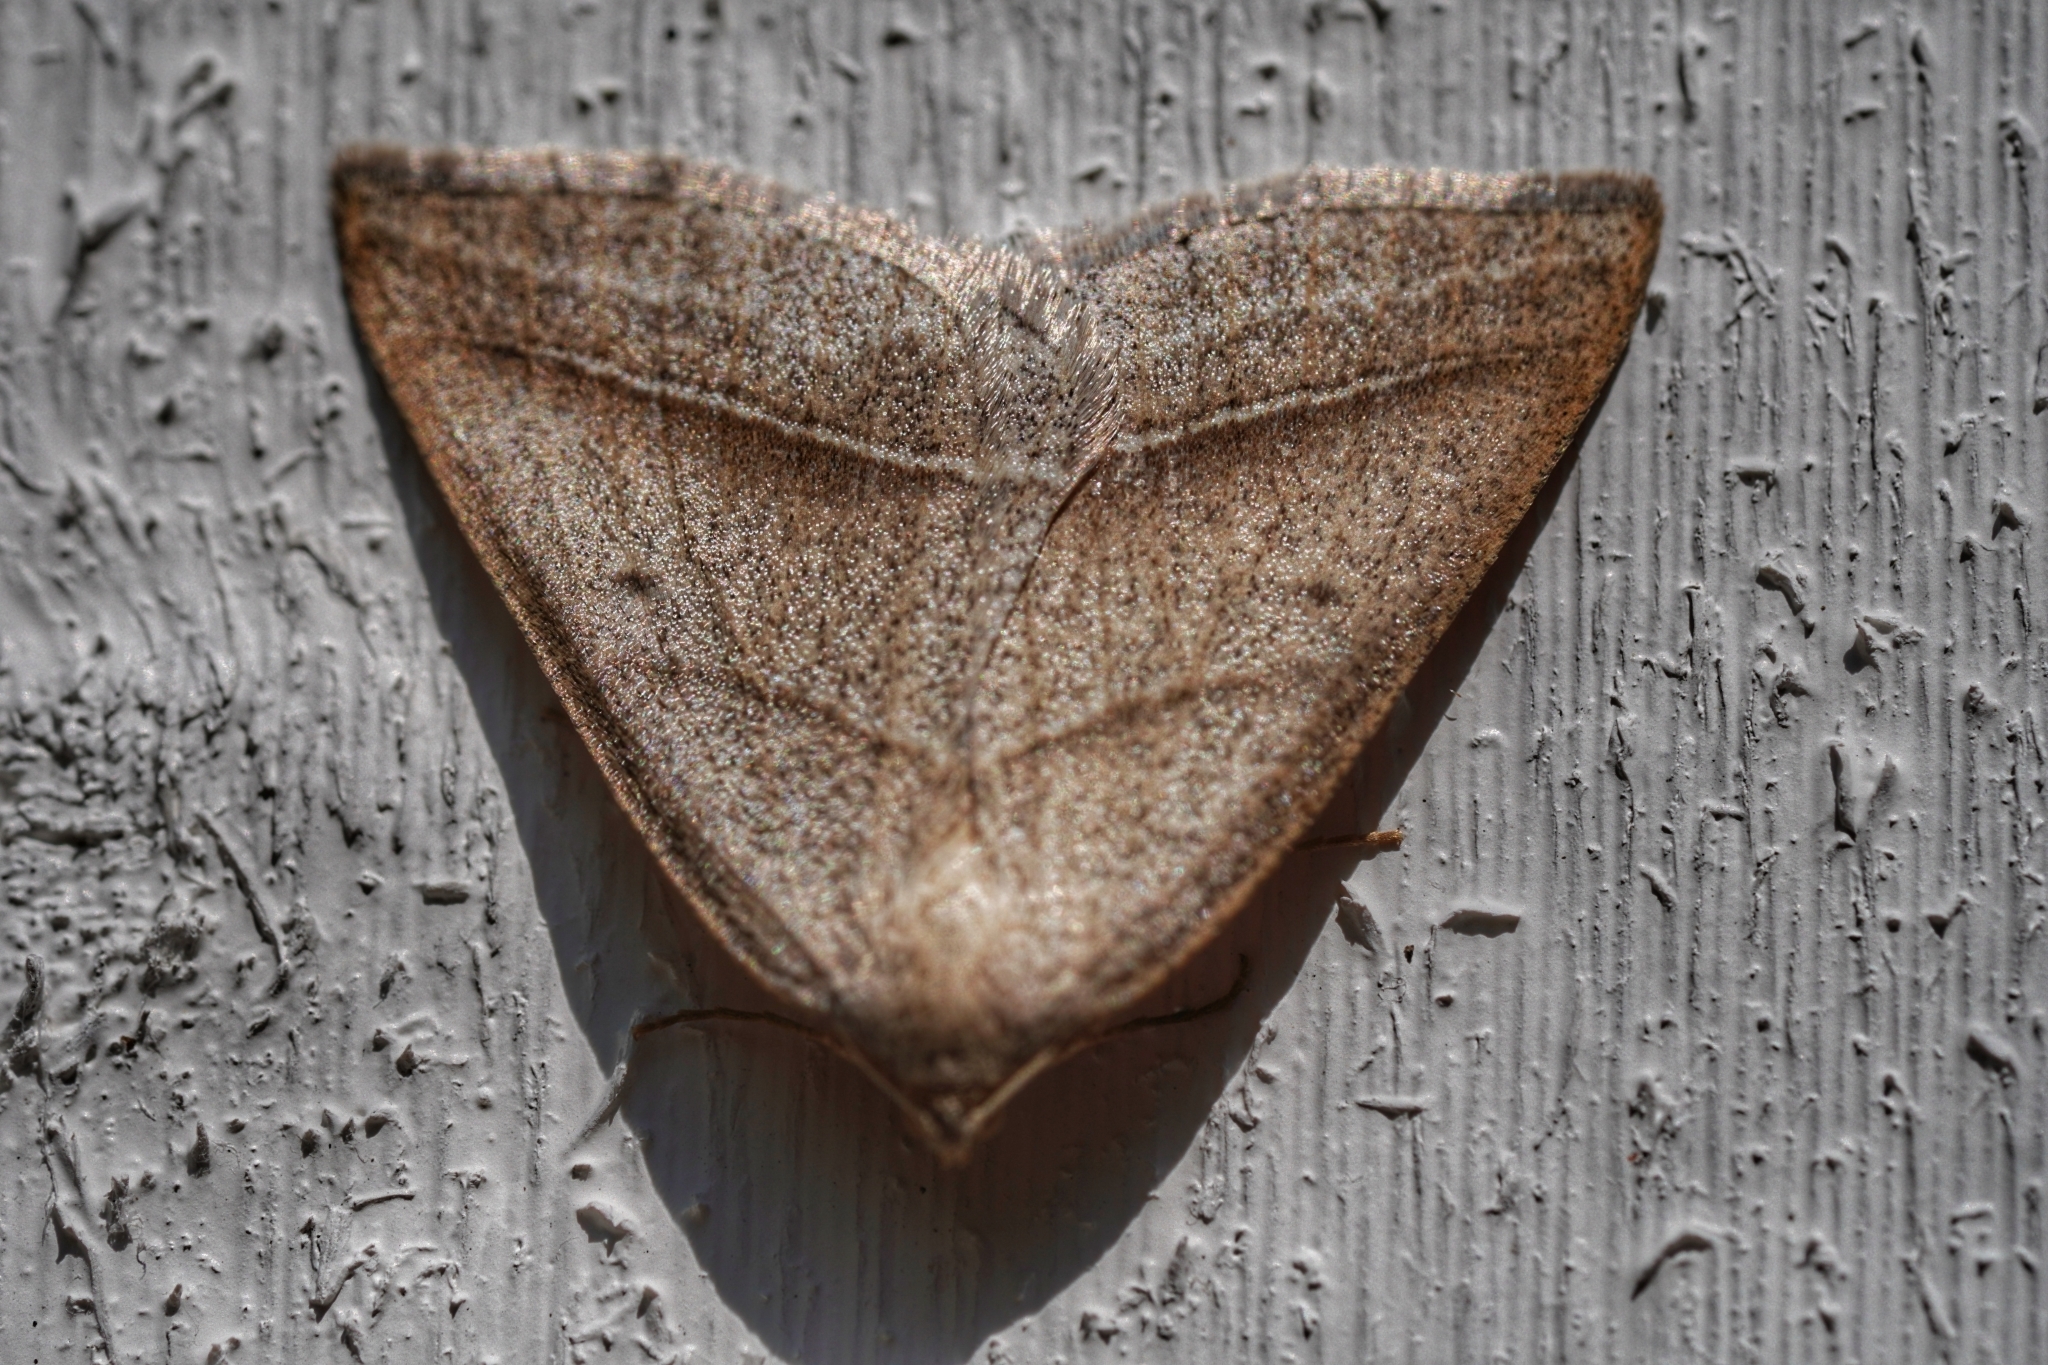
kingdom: Animalia
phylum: Arthropoda
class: Insecta
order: Lepidoptera
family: Pterophoridae
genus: Pterophorus
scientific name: Pterophorus Petrophora chlorosata
